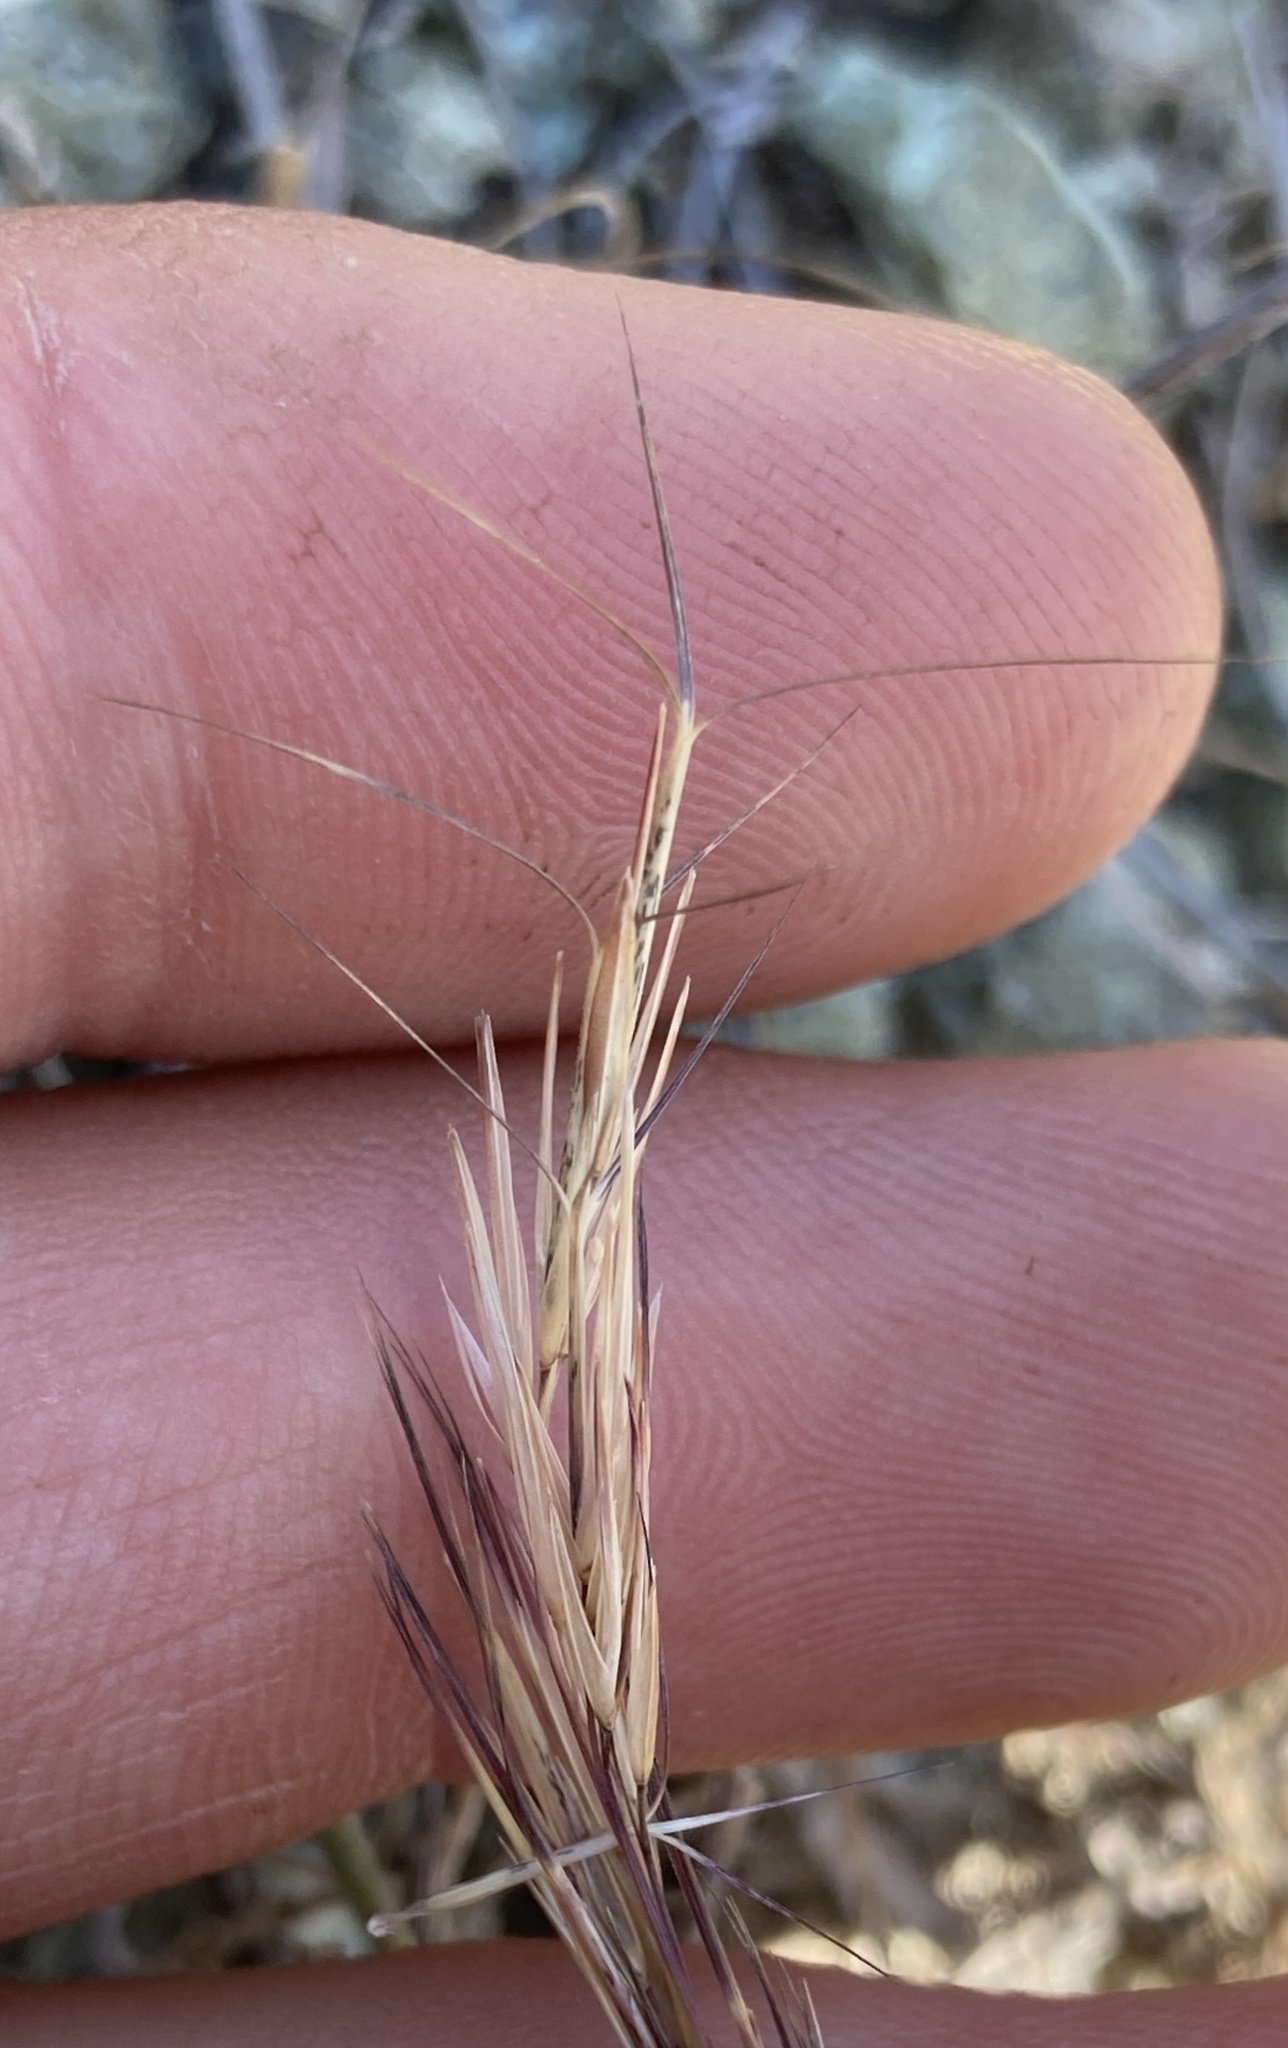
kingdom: Plantae
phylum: Tracheophyta
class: Liliopsida
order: Poales
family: Poaceae
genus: Aristida
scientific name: Aristida adscensionis
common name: Sixweeks threeawn
